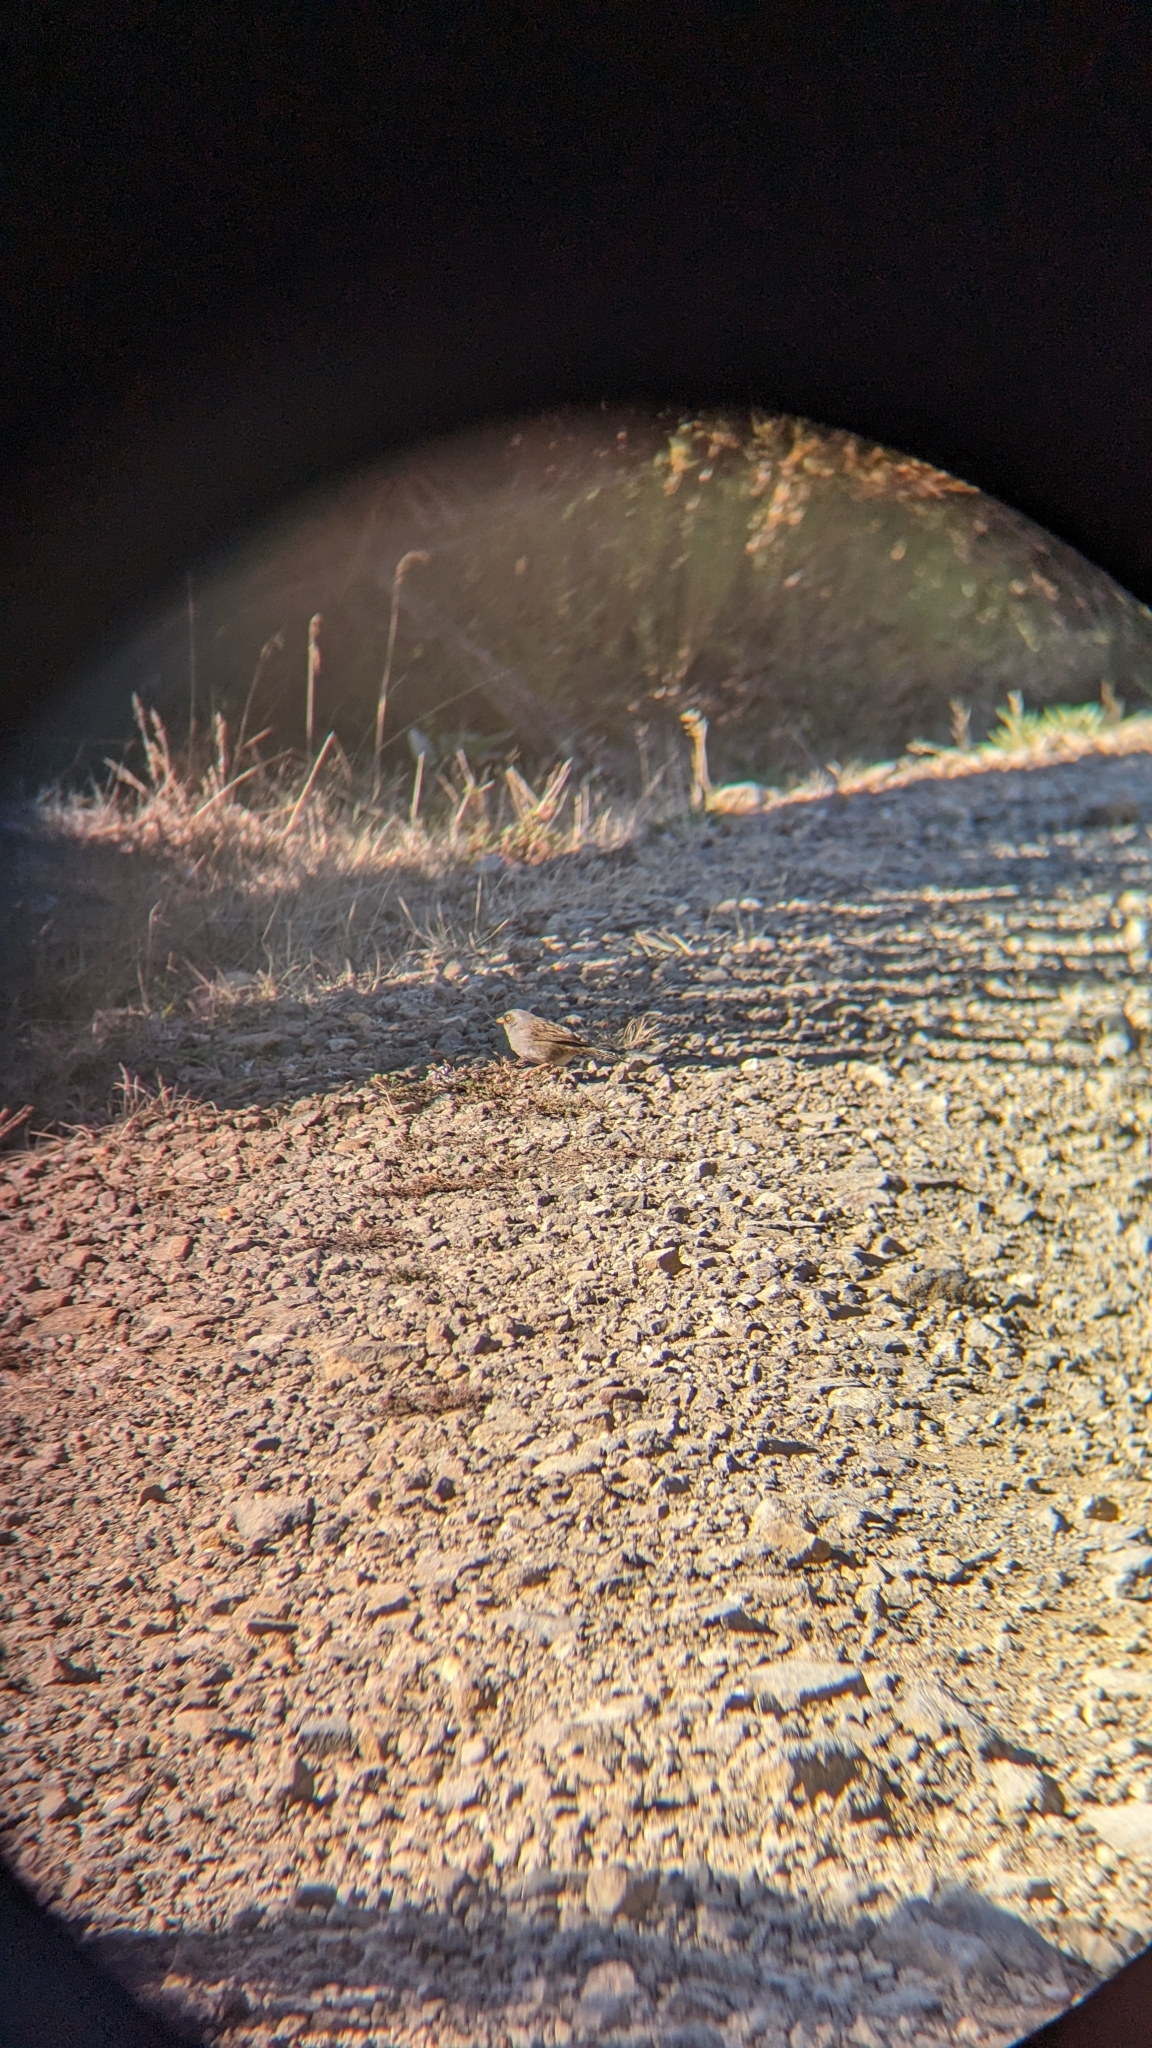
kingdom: Animalia
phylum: Chordata
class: Aves
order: Passeriformes
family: Passerellidae
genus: Junco
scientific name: Junco vulcani
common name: Volcano junco
